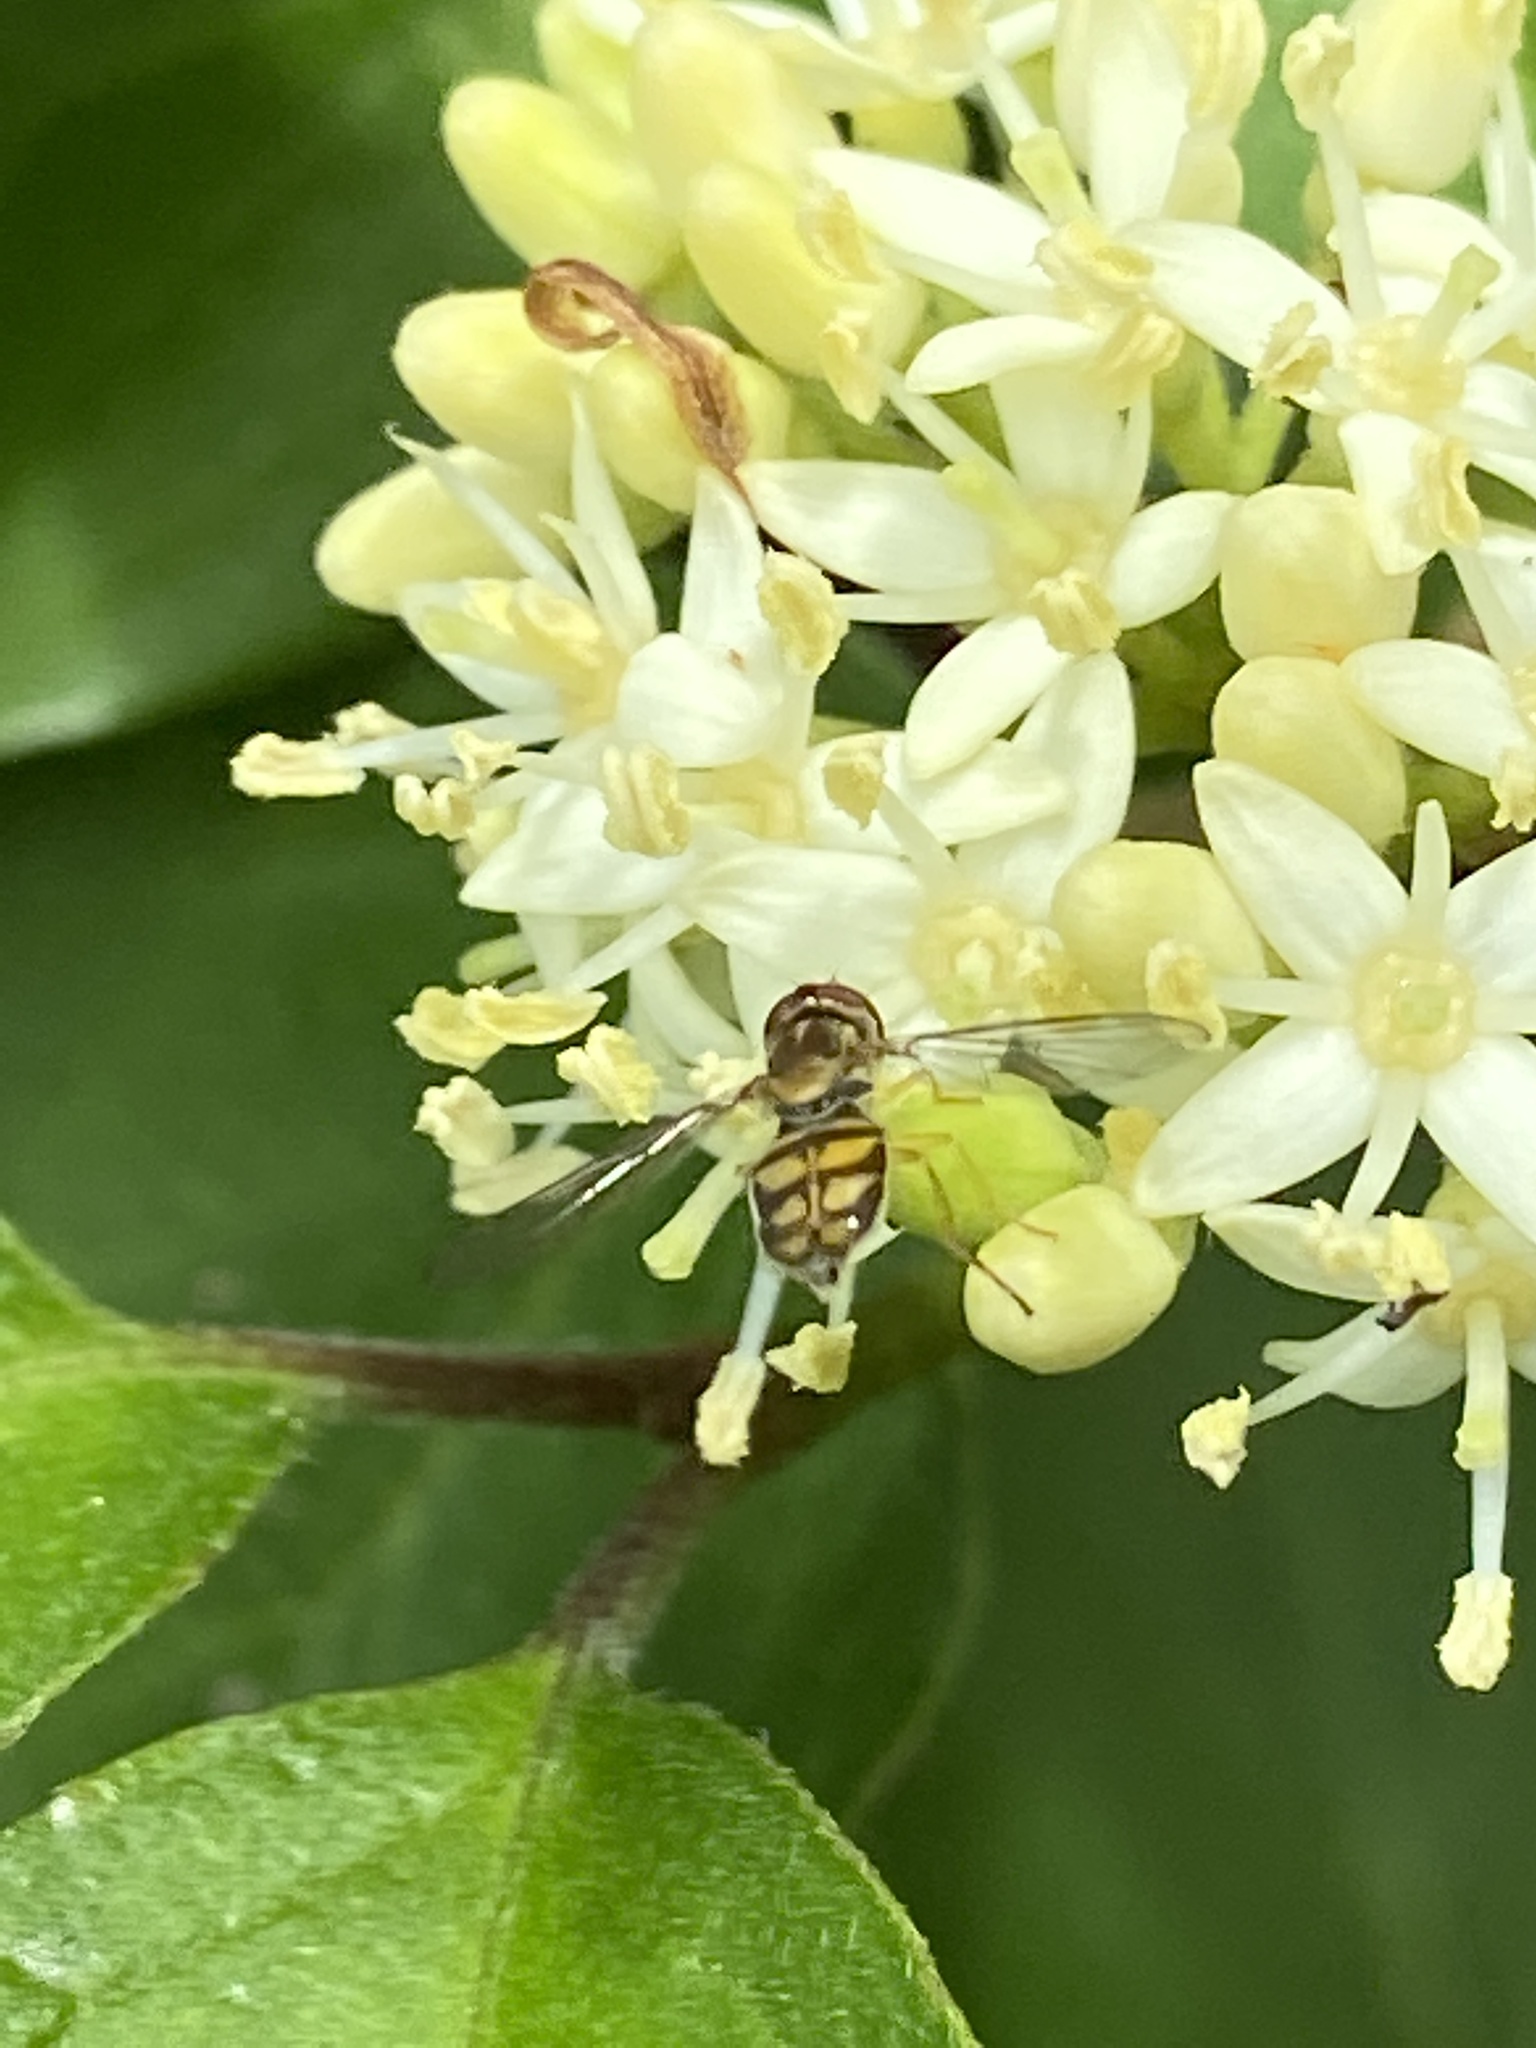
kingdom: Animalia
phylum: Arthropoda
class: Insecta
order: Diptera
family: Syrphidae
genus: Toxomerus
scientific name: Toxomerus marginatus
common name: Syrphid fly
